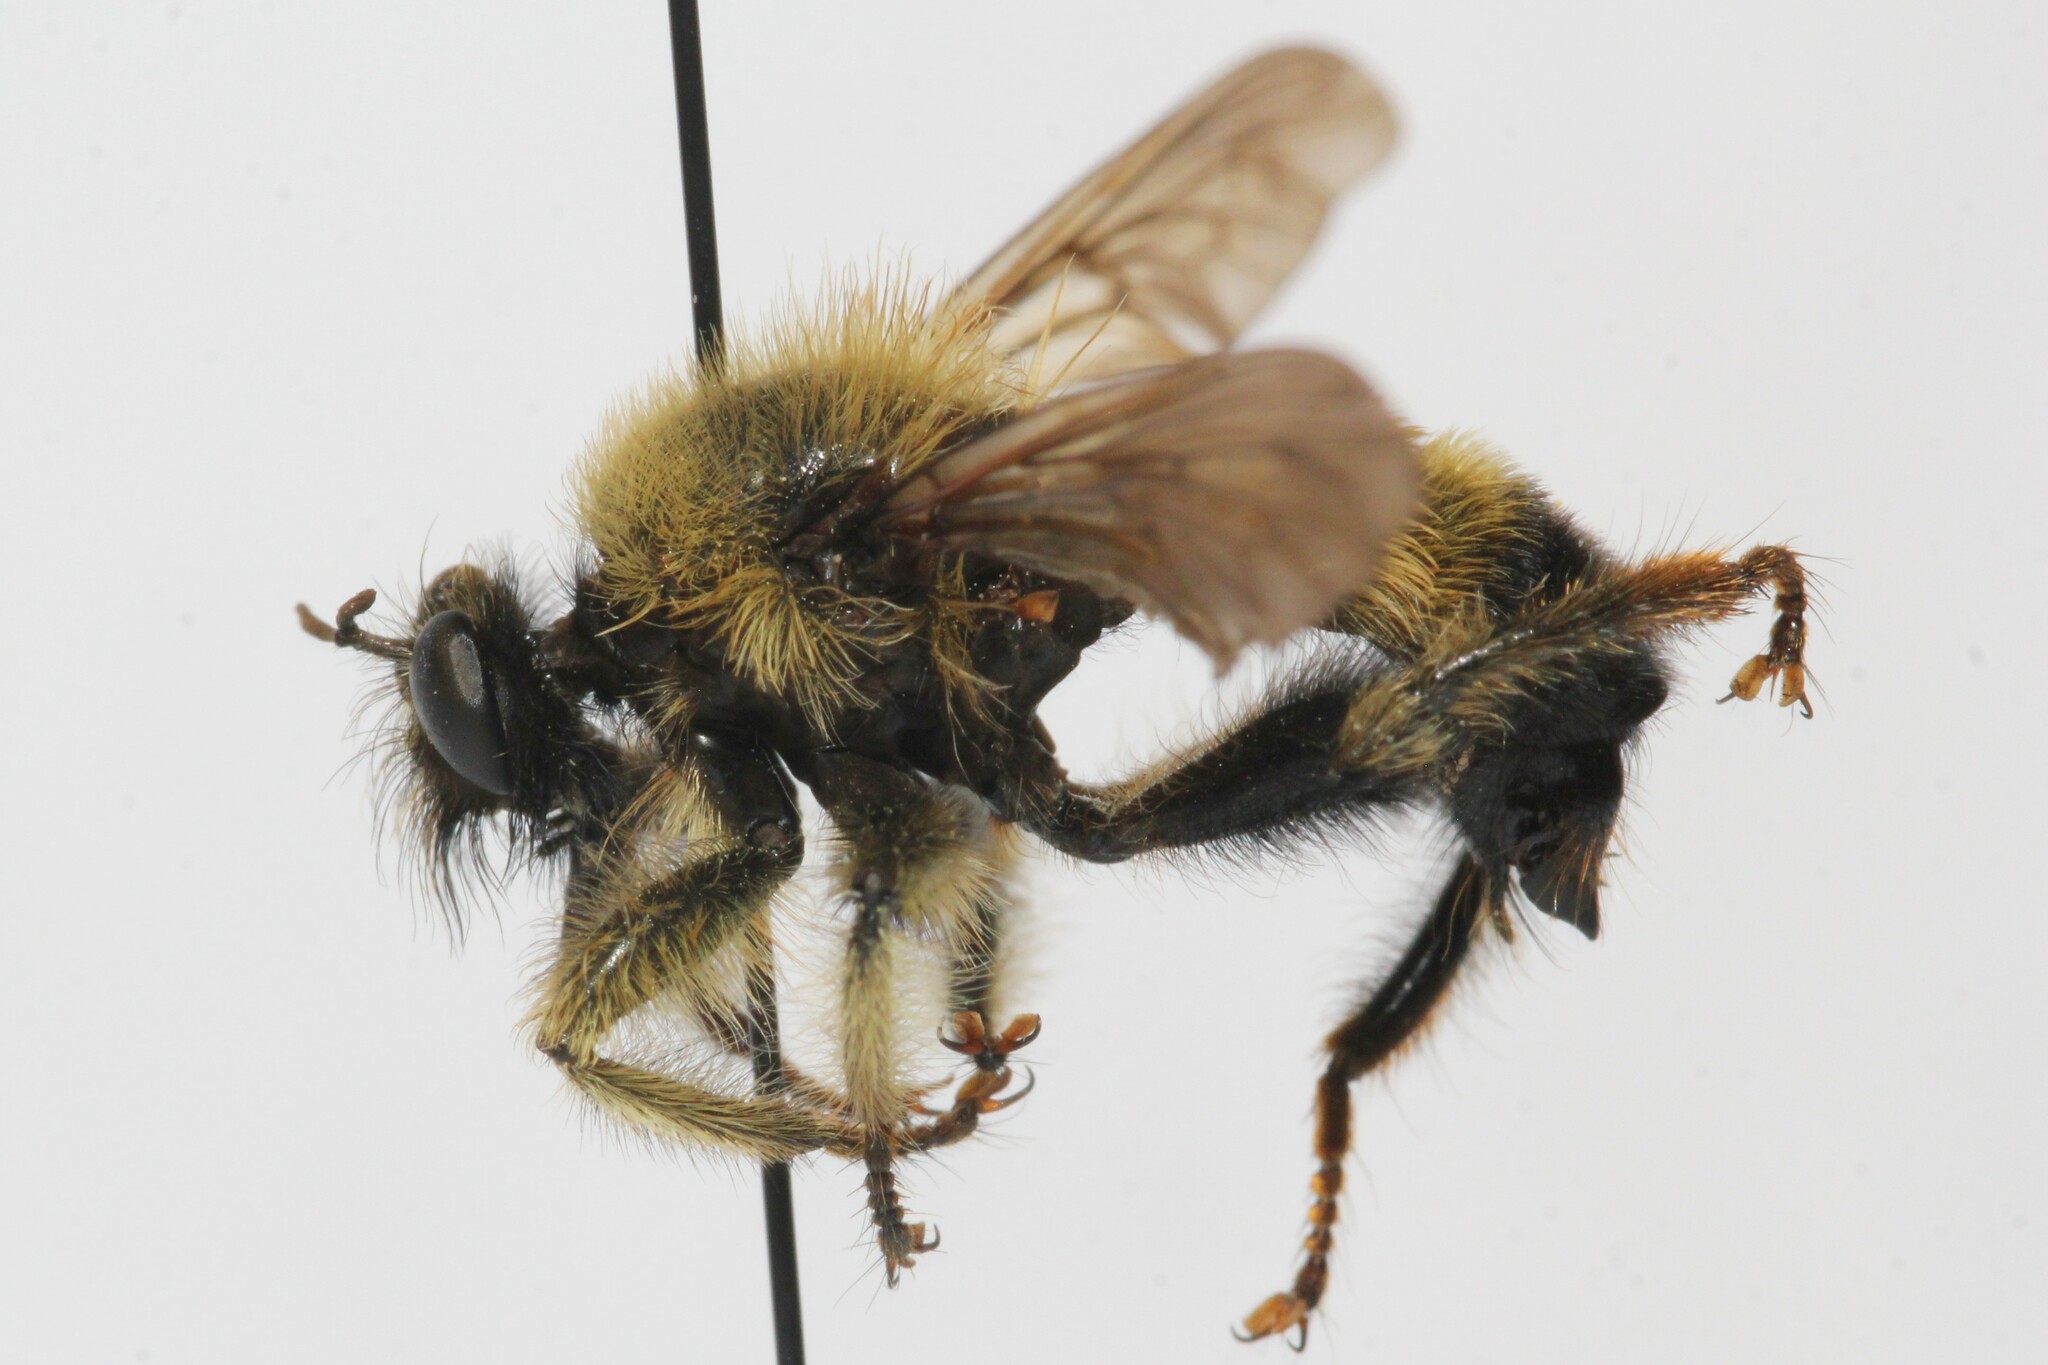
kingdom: Animalia
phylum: Arthropoda
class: Insecta
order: Diptera
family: Asilidae
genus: Laphria
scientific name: Laphria sacrator
